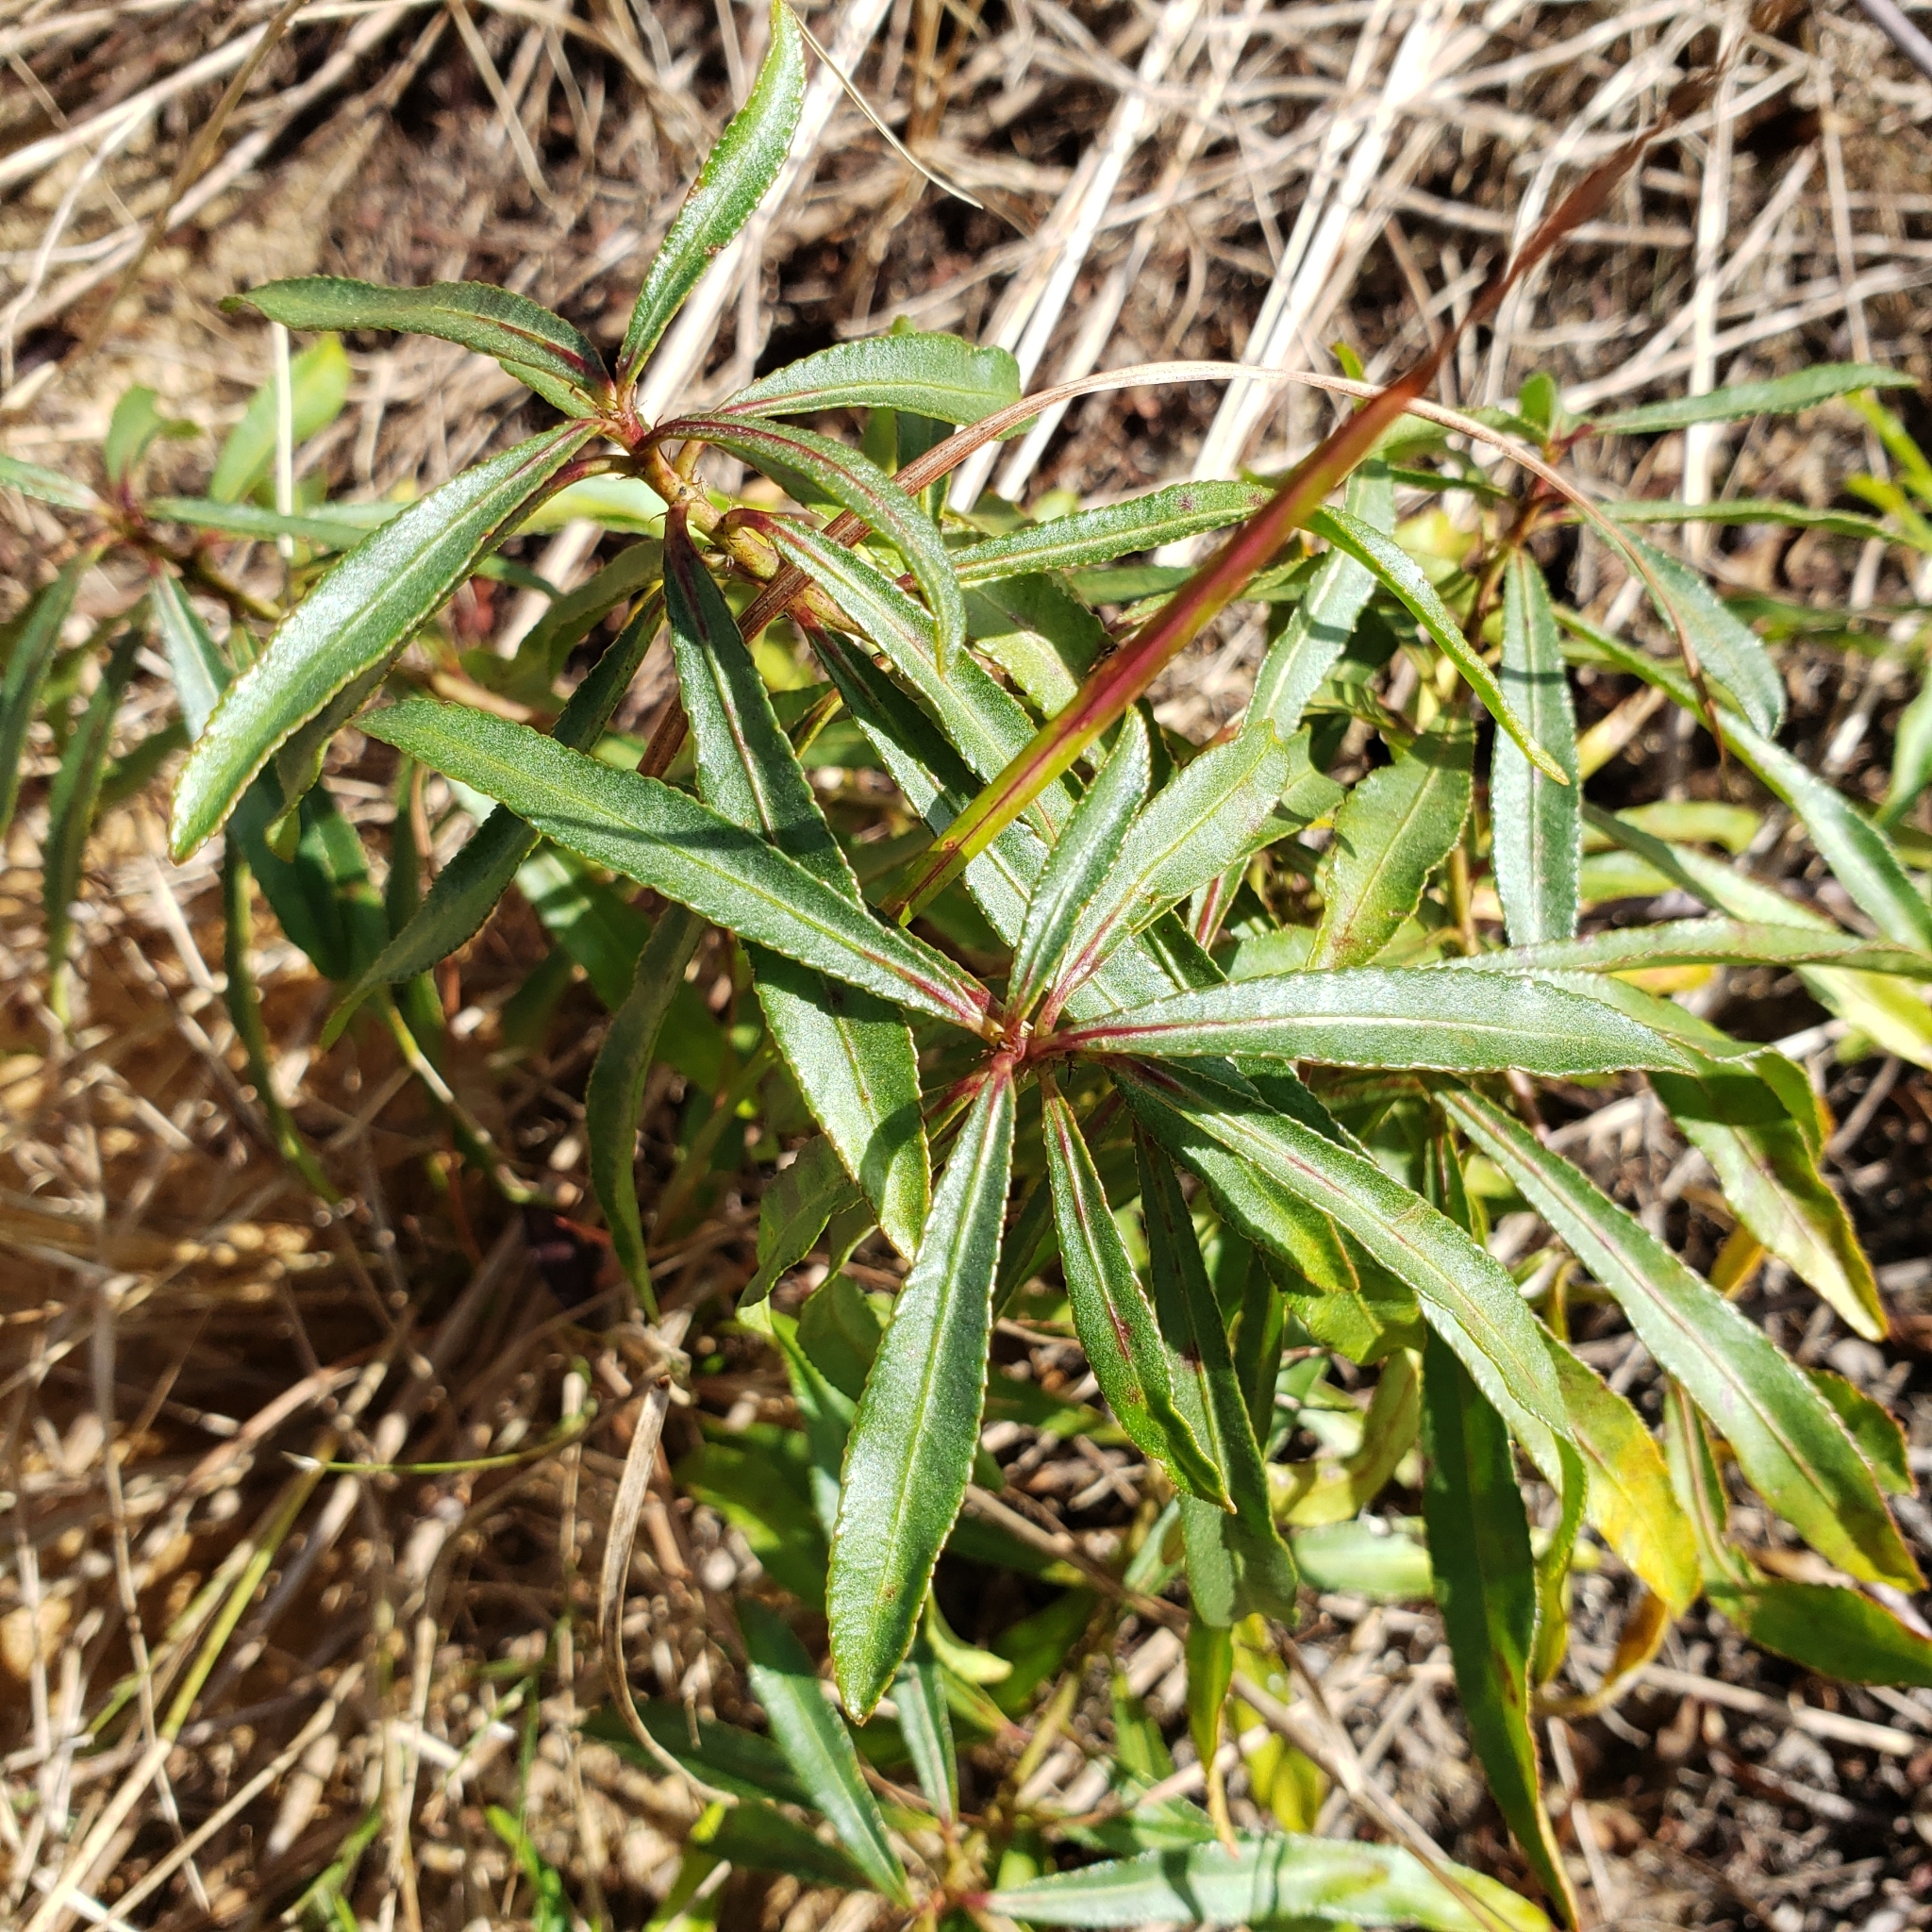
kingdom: Plantae
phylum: Tracheophyta
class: Magnoliopsida
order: Malpighiales
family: Euphorbiaceae
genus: Stillingia
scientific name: Stillingia sylvatica
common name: Queen's-delight
